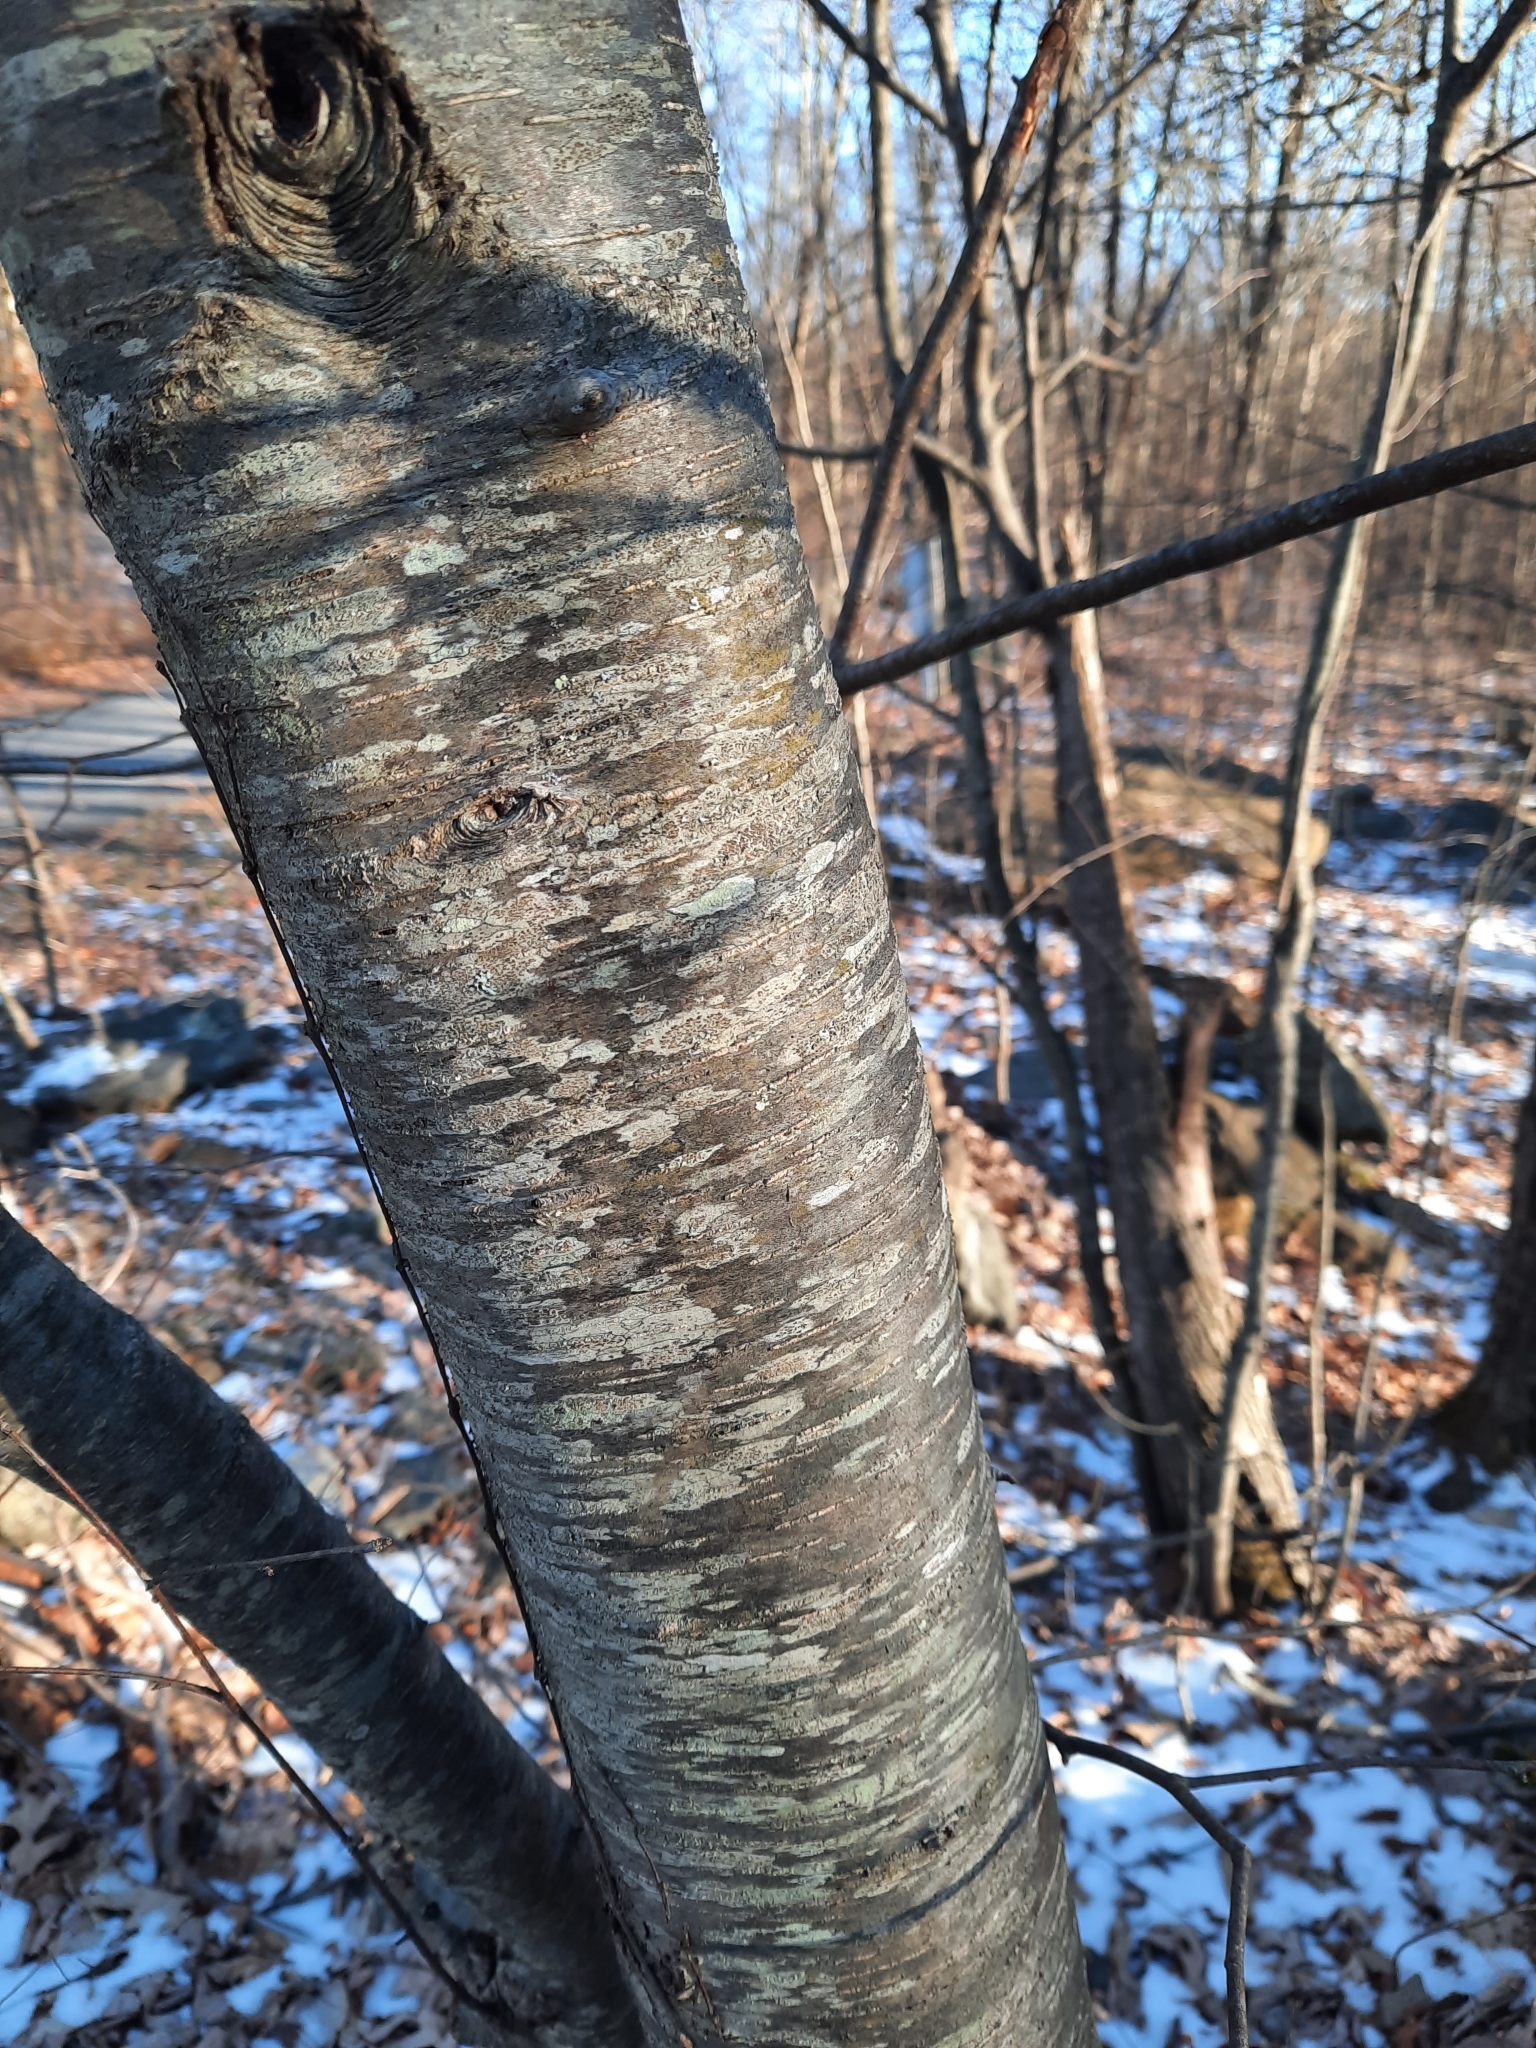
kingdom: Plantae
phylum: Tracheophyta
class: Magnoliopsida
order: Fagales
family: Betulaceae
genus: Betula
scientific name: Betula lenta
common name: Black birch
